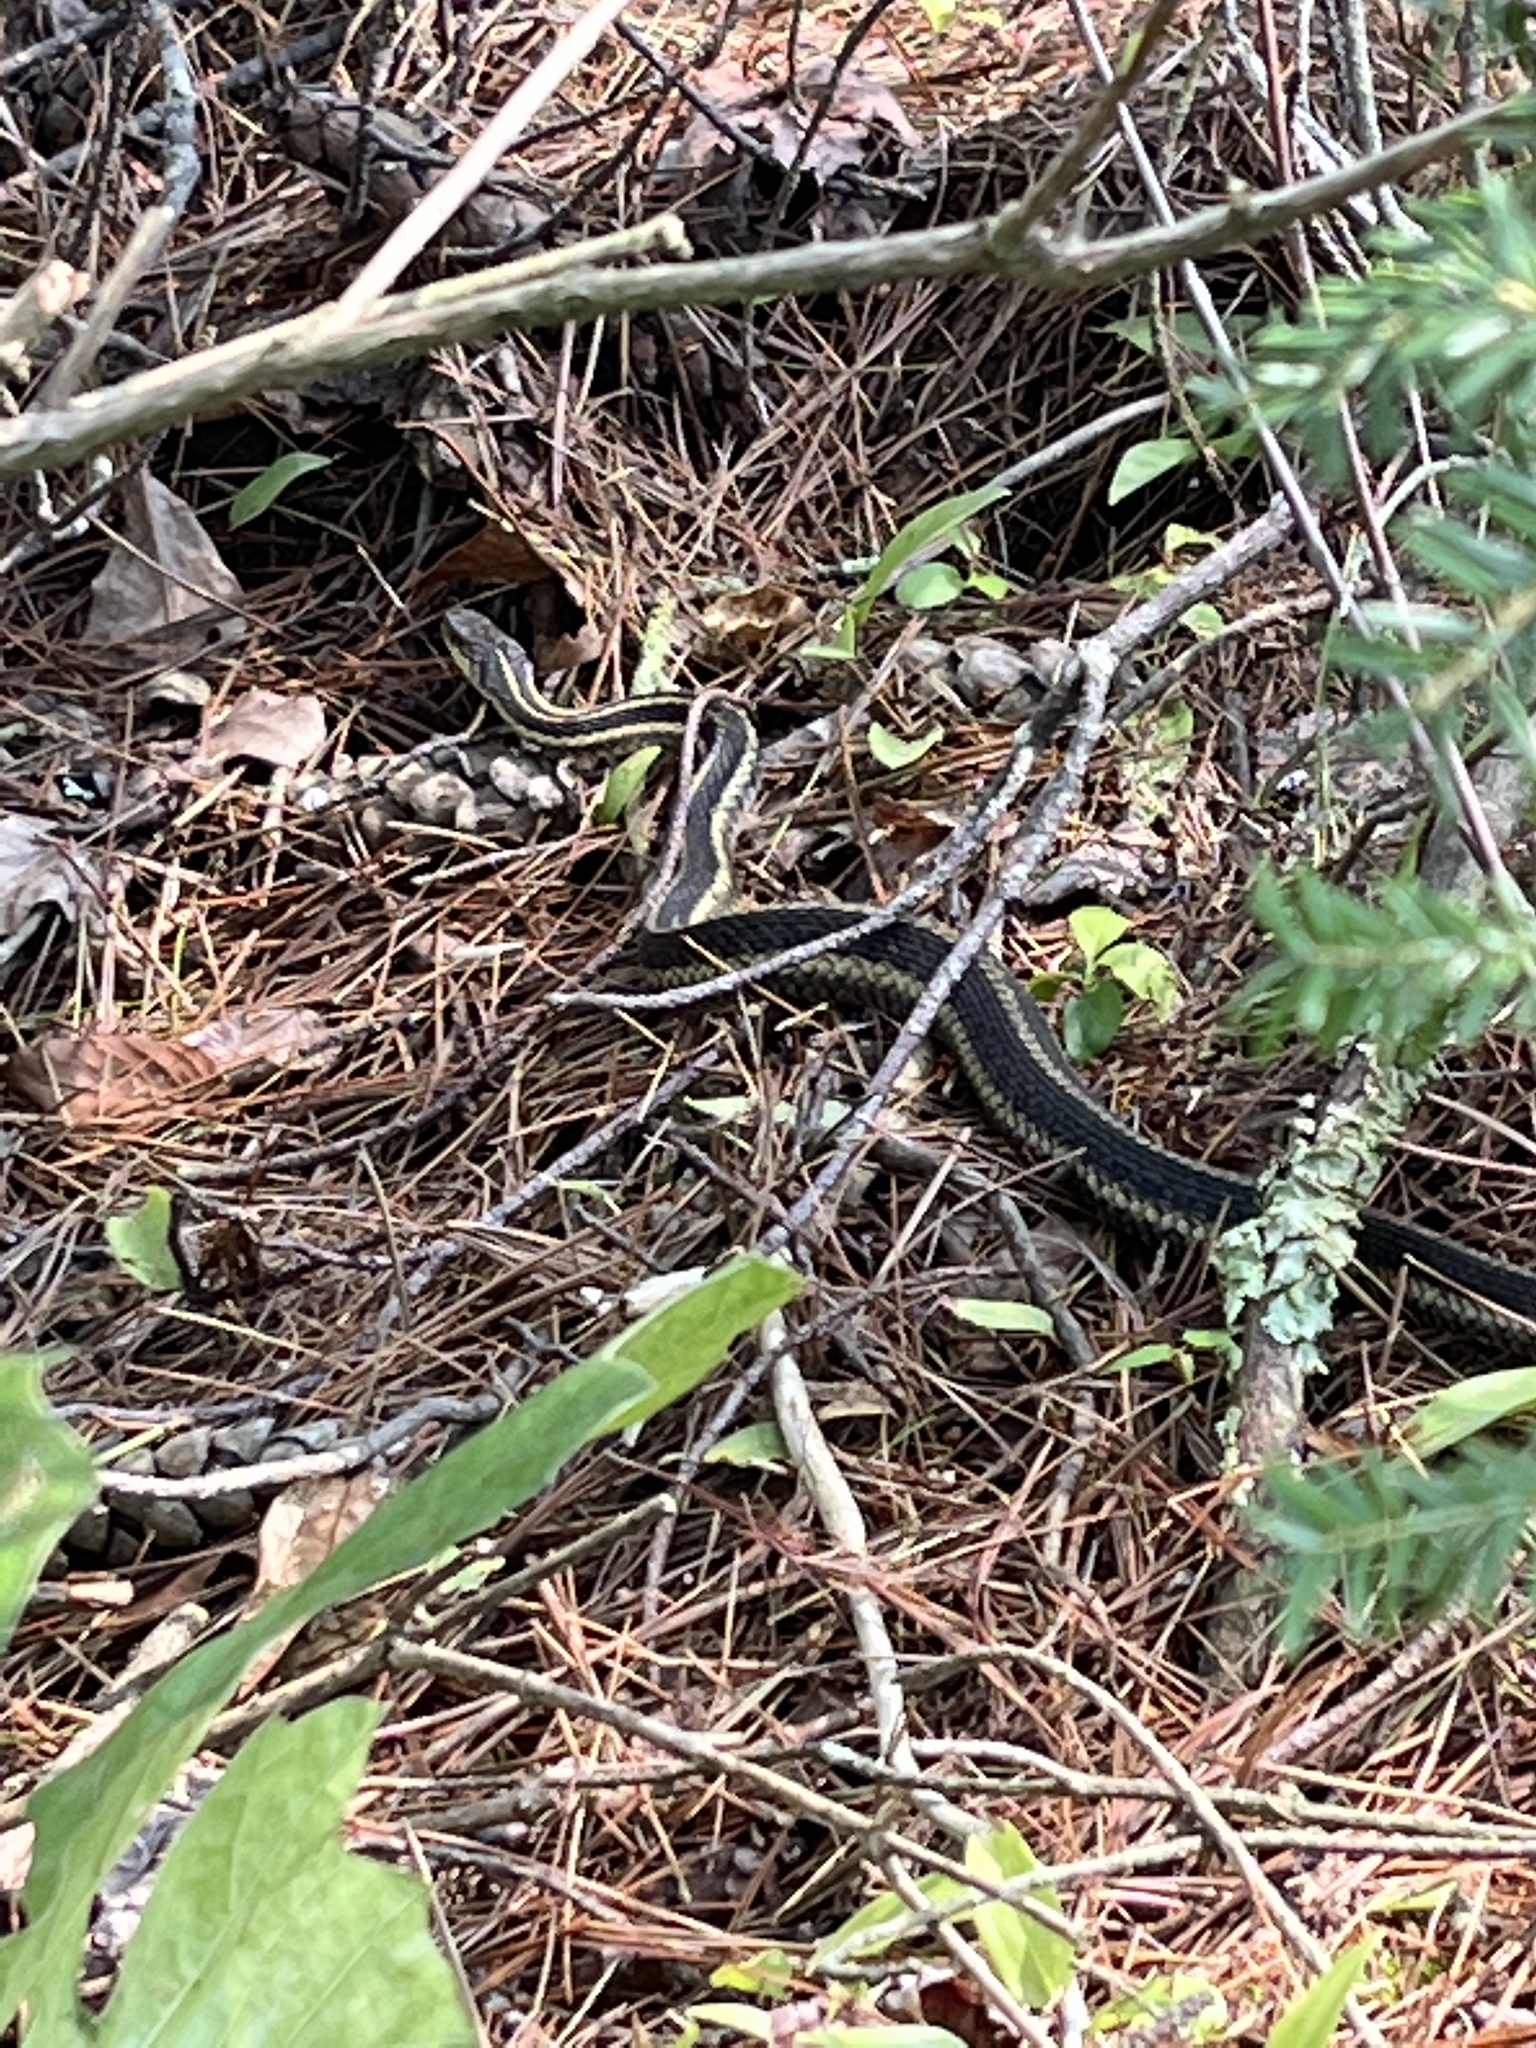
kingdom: Animalia
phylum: Chordata
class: Squamata
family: Colubridae
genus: Thamnophis
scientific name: Thamnophis sirtalis
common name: Common garter snake
